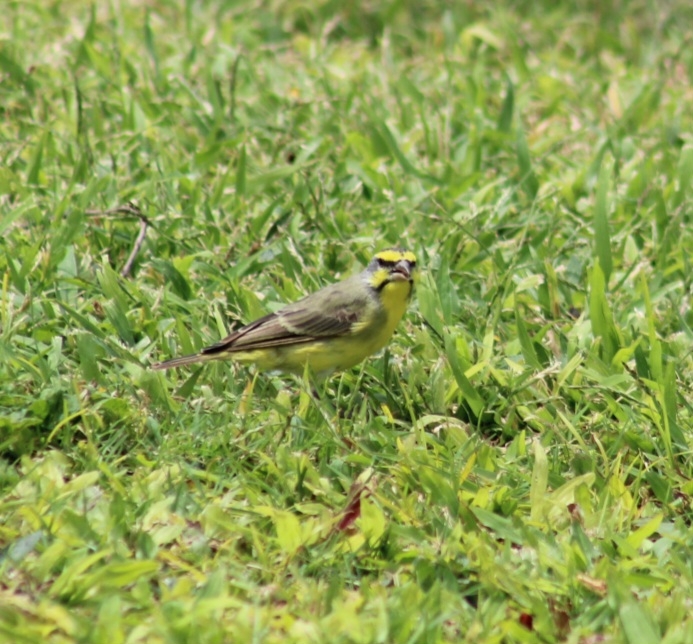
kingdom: Animalia
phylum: Chordata
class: Aves
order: Passeriformes
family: Fringillidae
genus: Crithagra
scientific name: Crithagra mozambica
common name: Yellow-fronted canary
